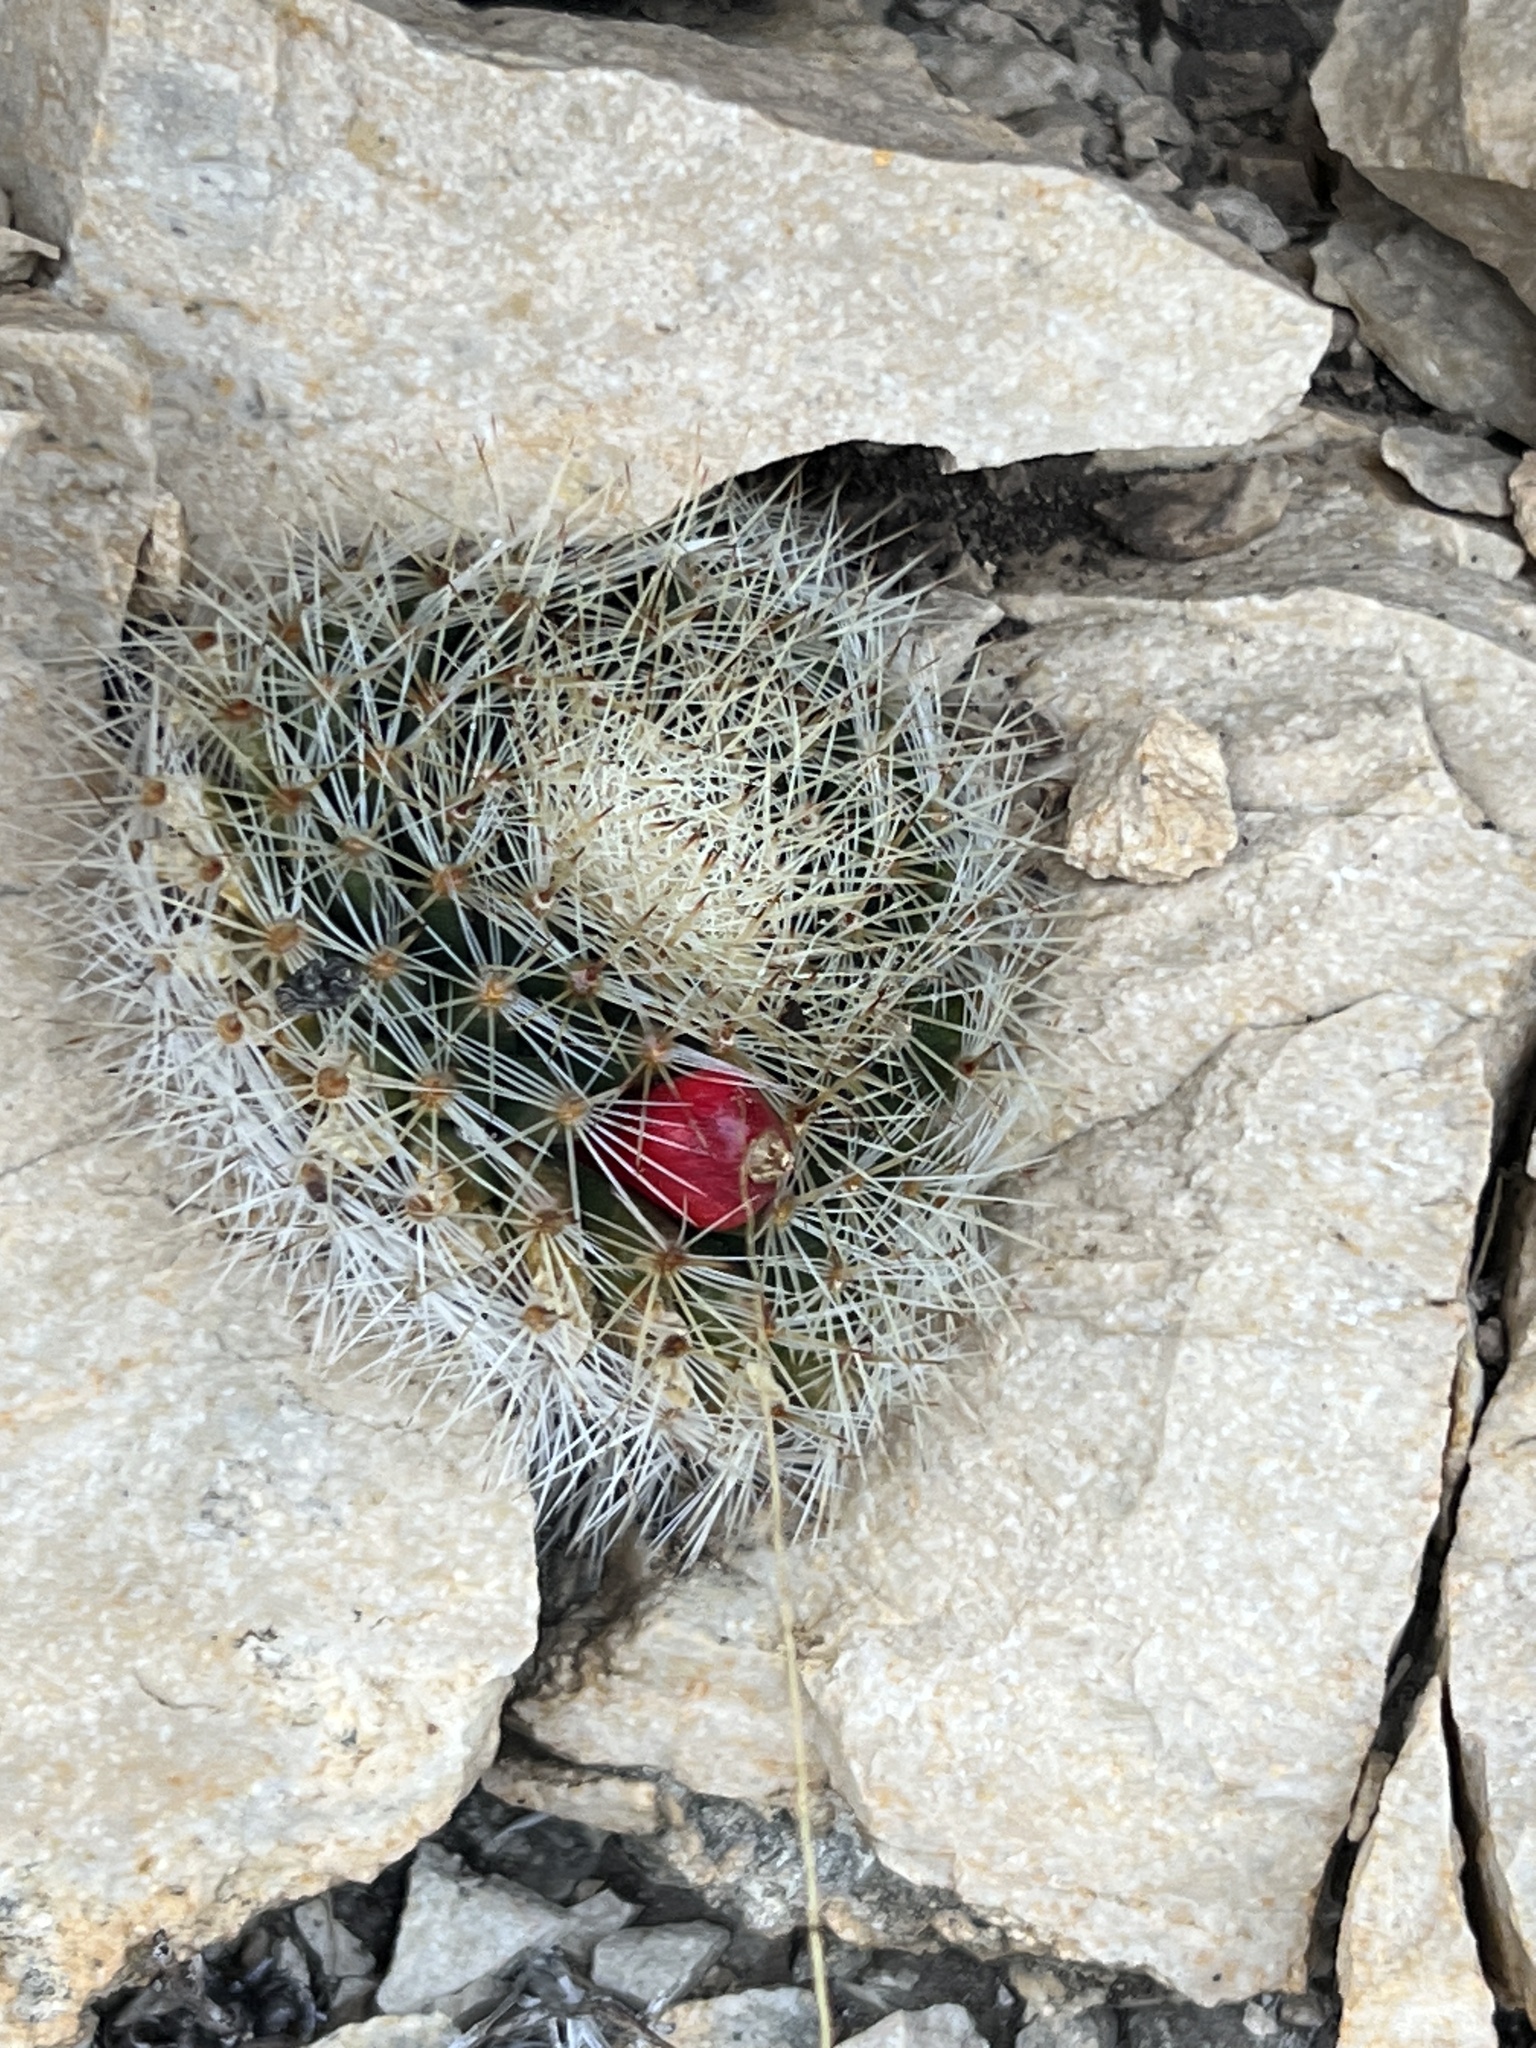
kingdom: Plantae
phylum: Tracheophyta
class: Magnoliopsida
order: Caryophyllales
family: Cactaceae
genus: Mammillaria
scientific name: Mammillaria heyderi
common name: Little nipple cactus
